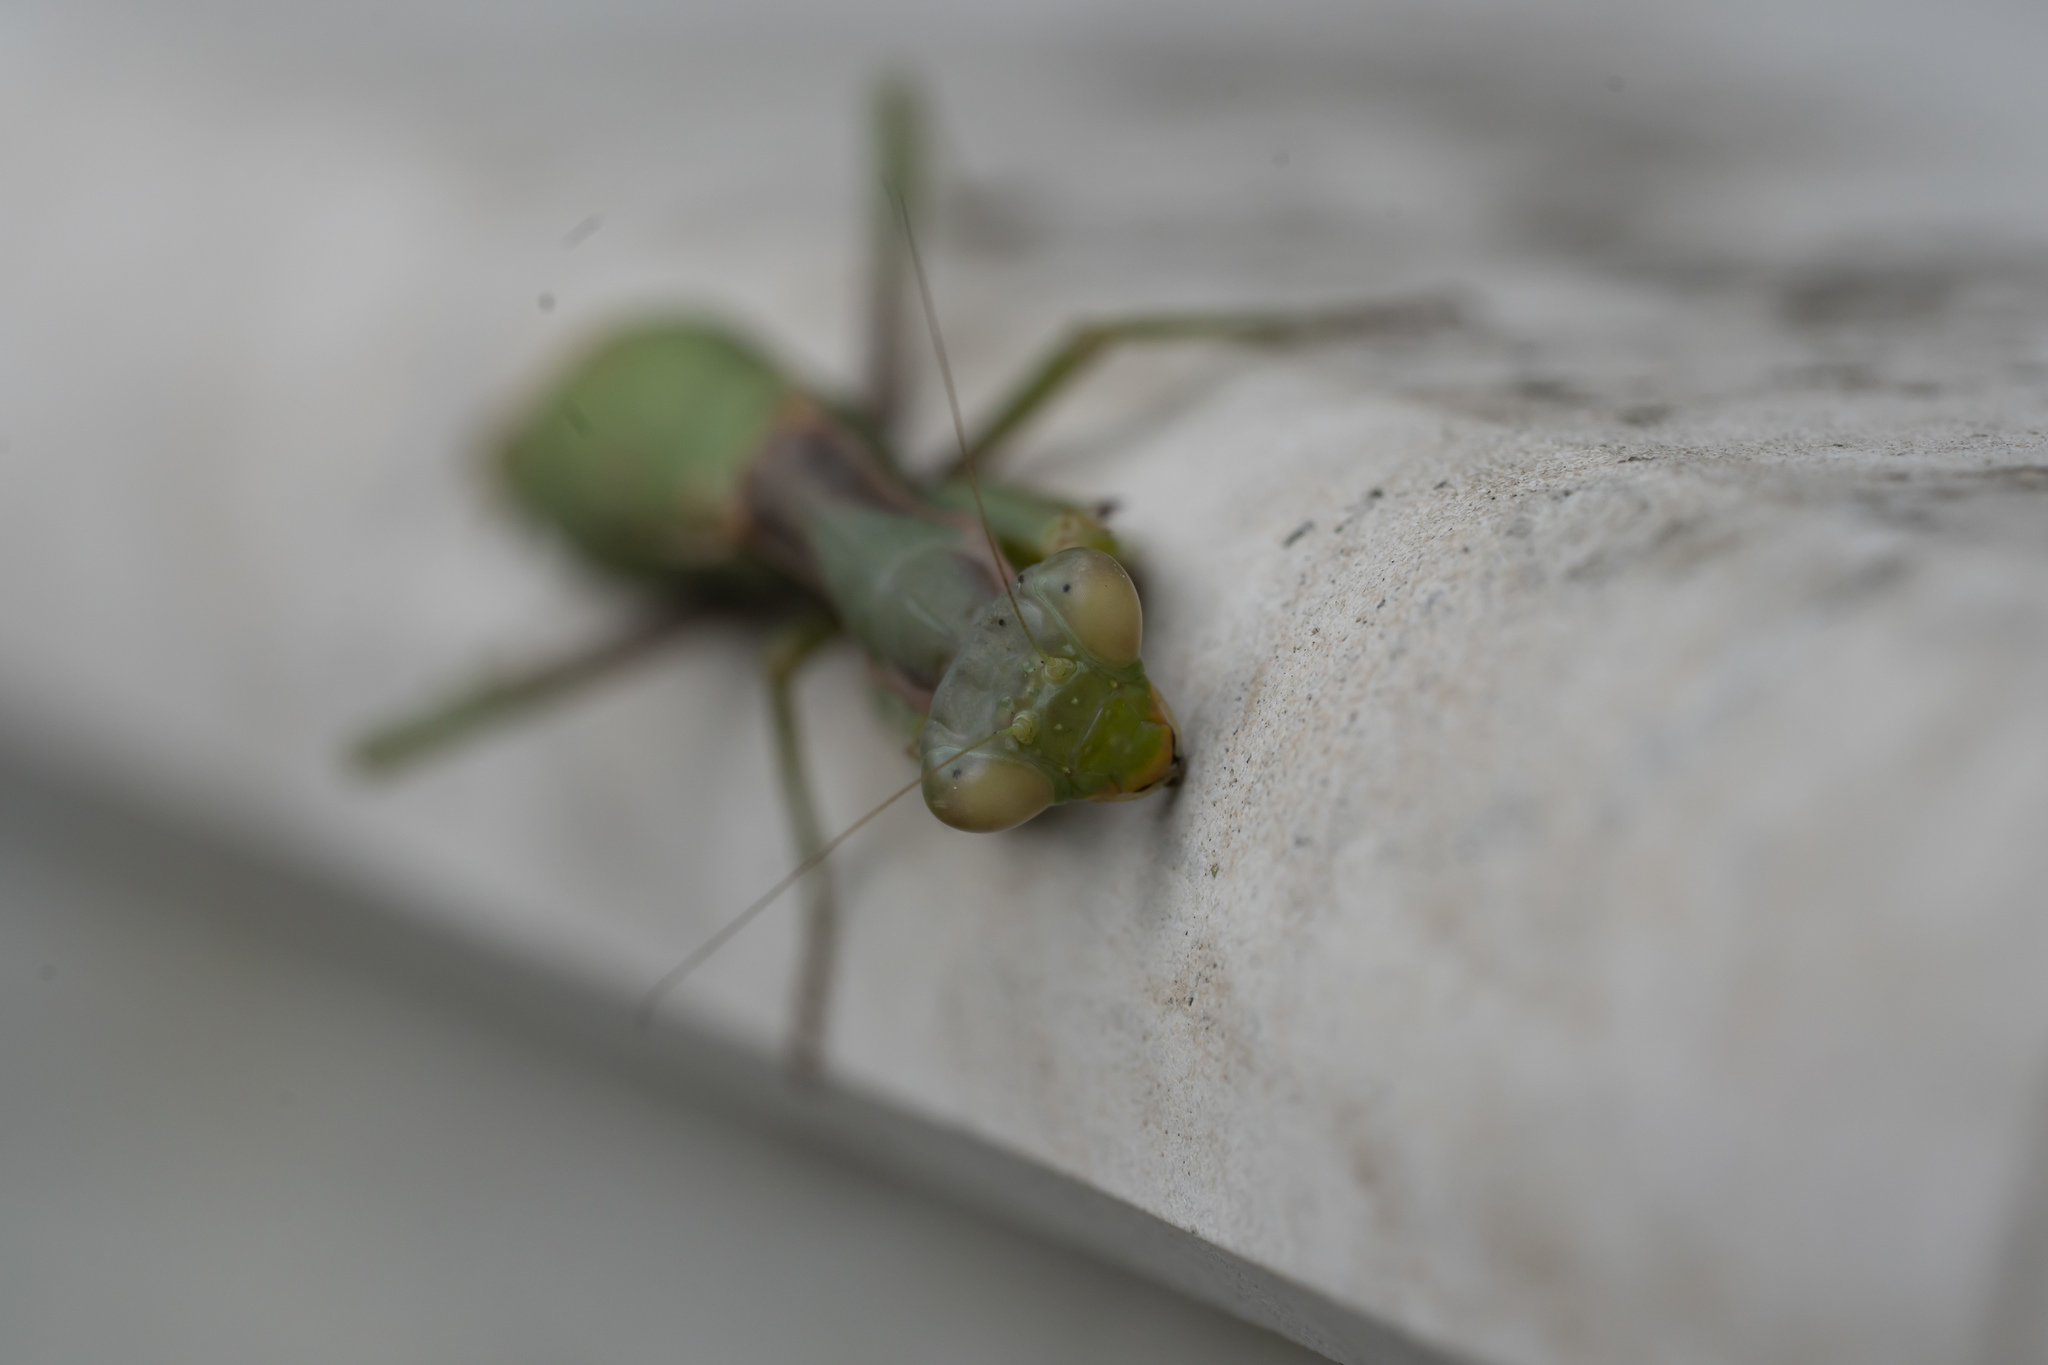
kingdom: Animalia
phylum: Arthropoda
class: Insecta
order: Mantodea
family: Eremiaphilidae
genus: Iris
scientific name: Iris oratoria
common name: Mediterranean mantis
